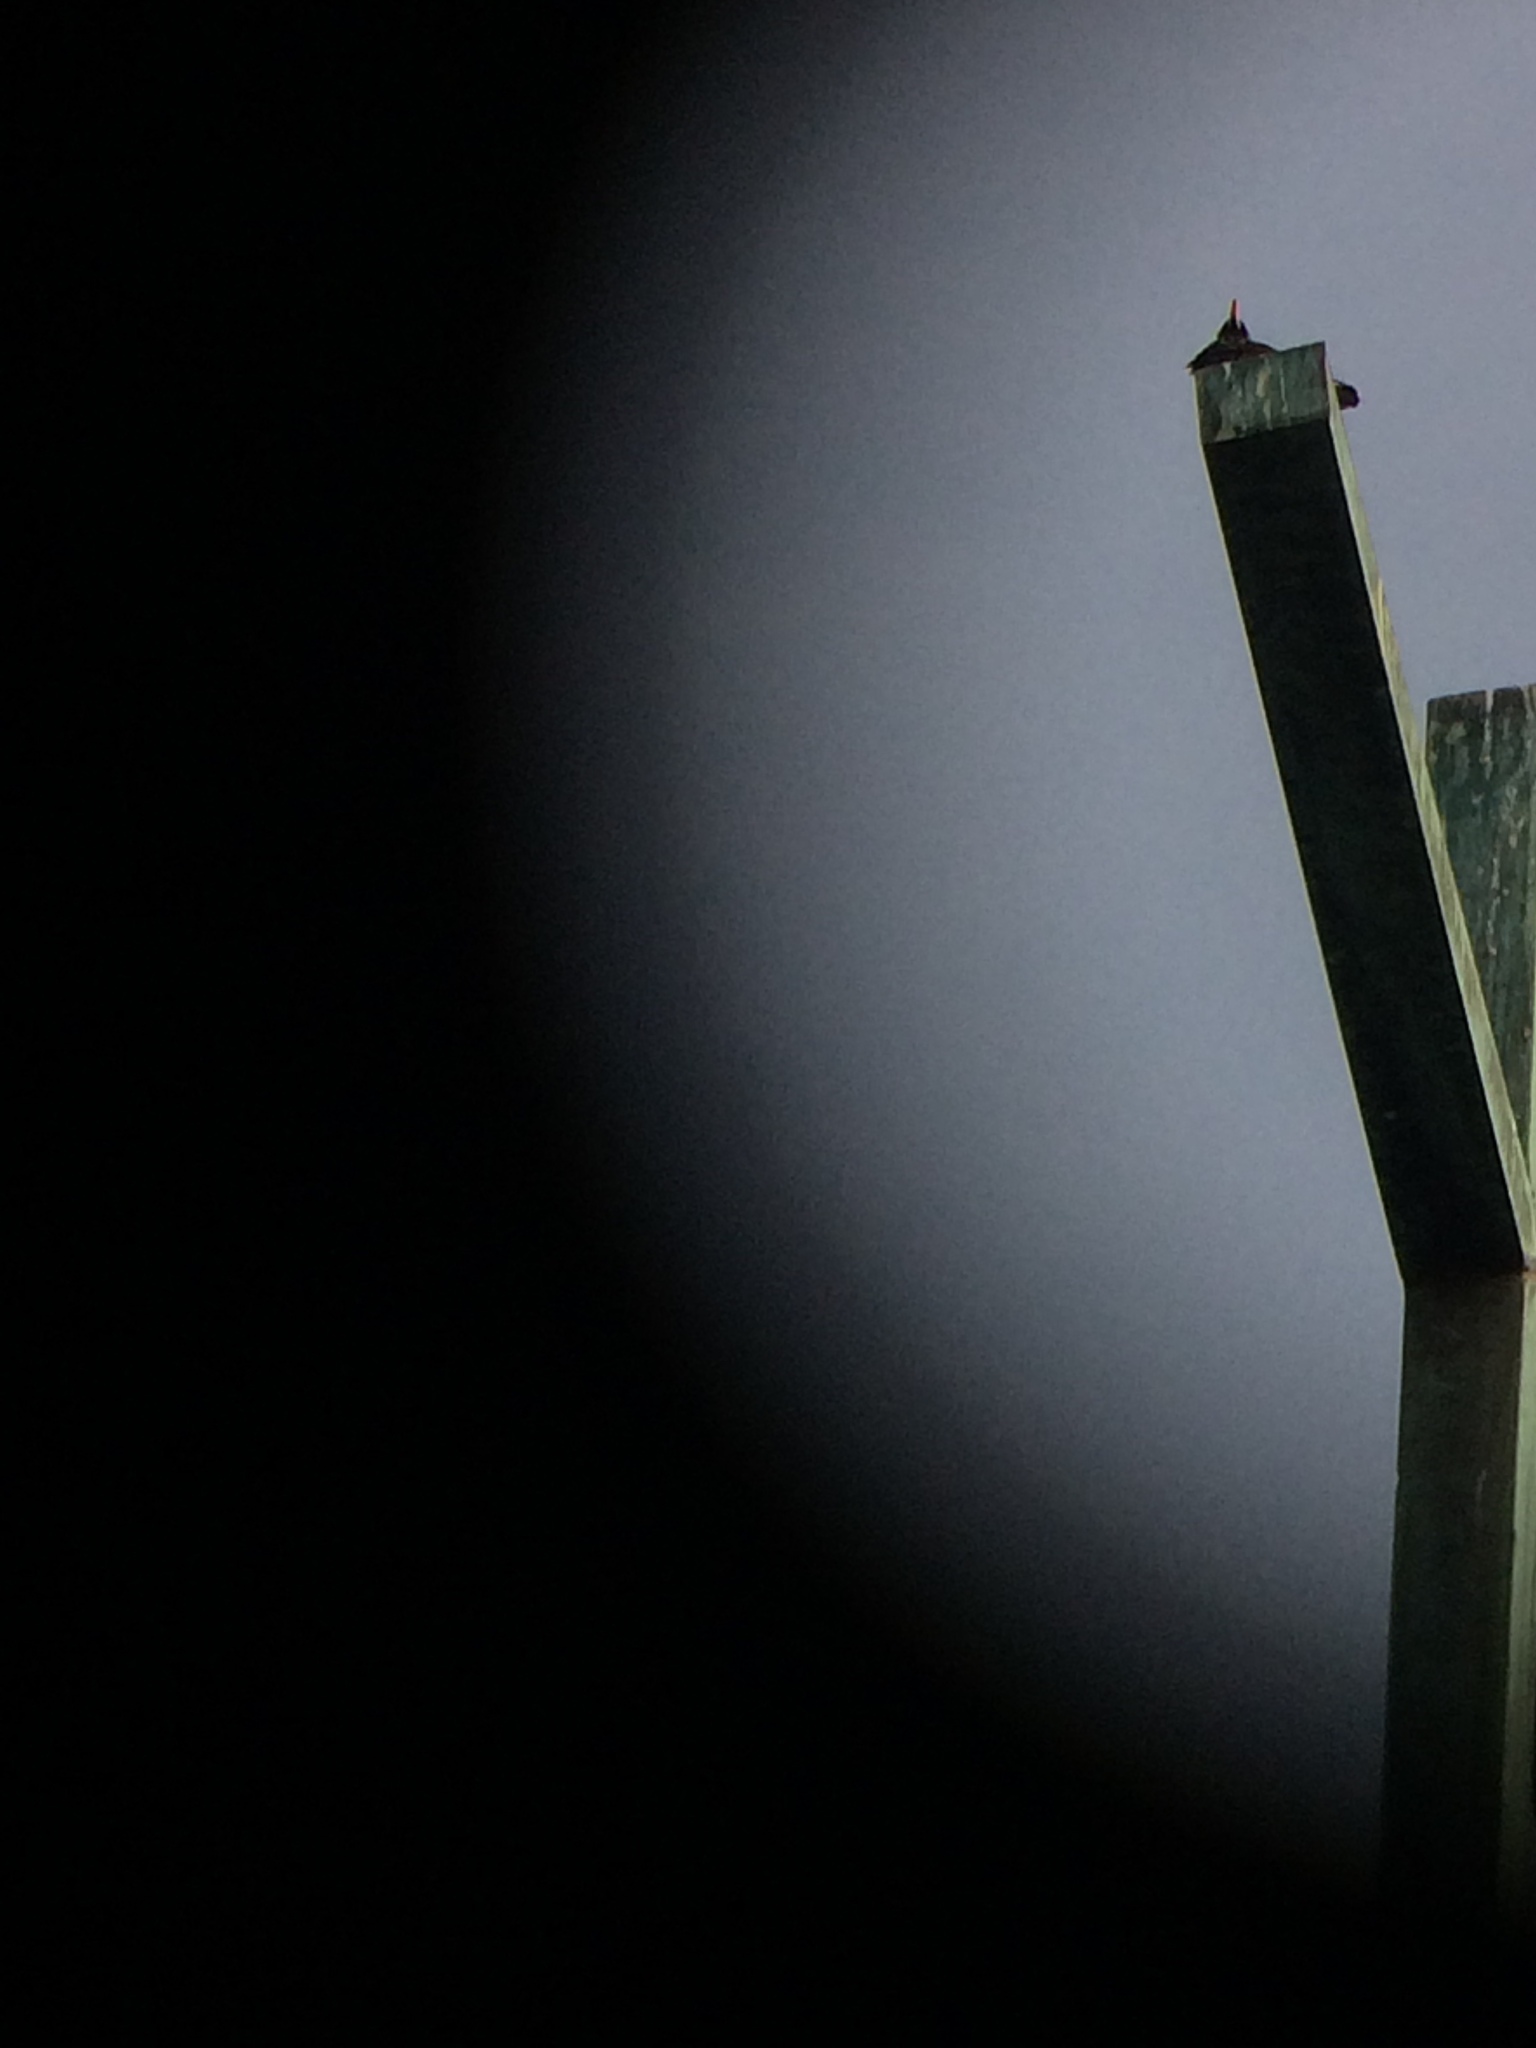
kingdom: Animalia
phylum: Chordata
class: Aves
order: Passeriformes
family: Sturnidae
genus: Sturnus
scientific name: Sturnus vulgaris
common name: Common starling
